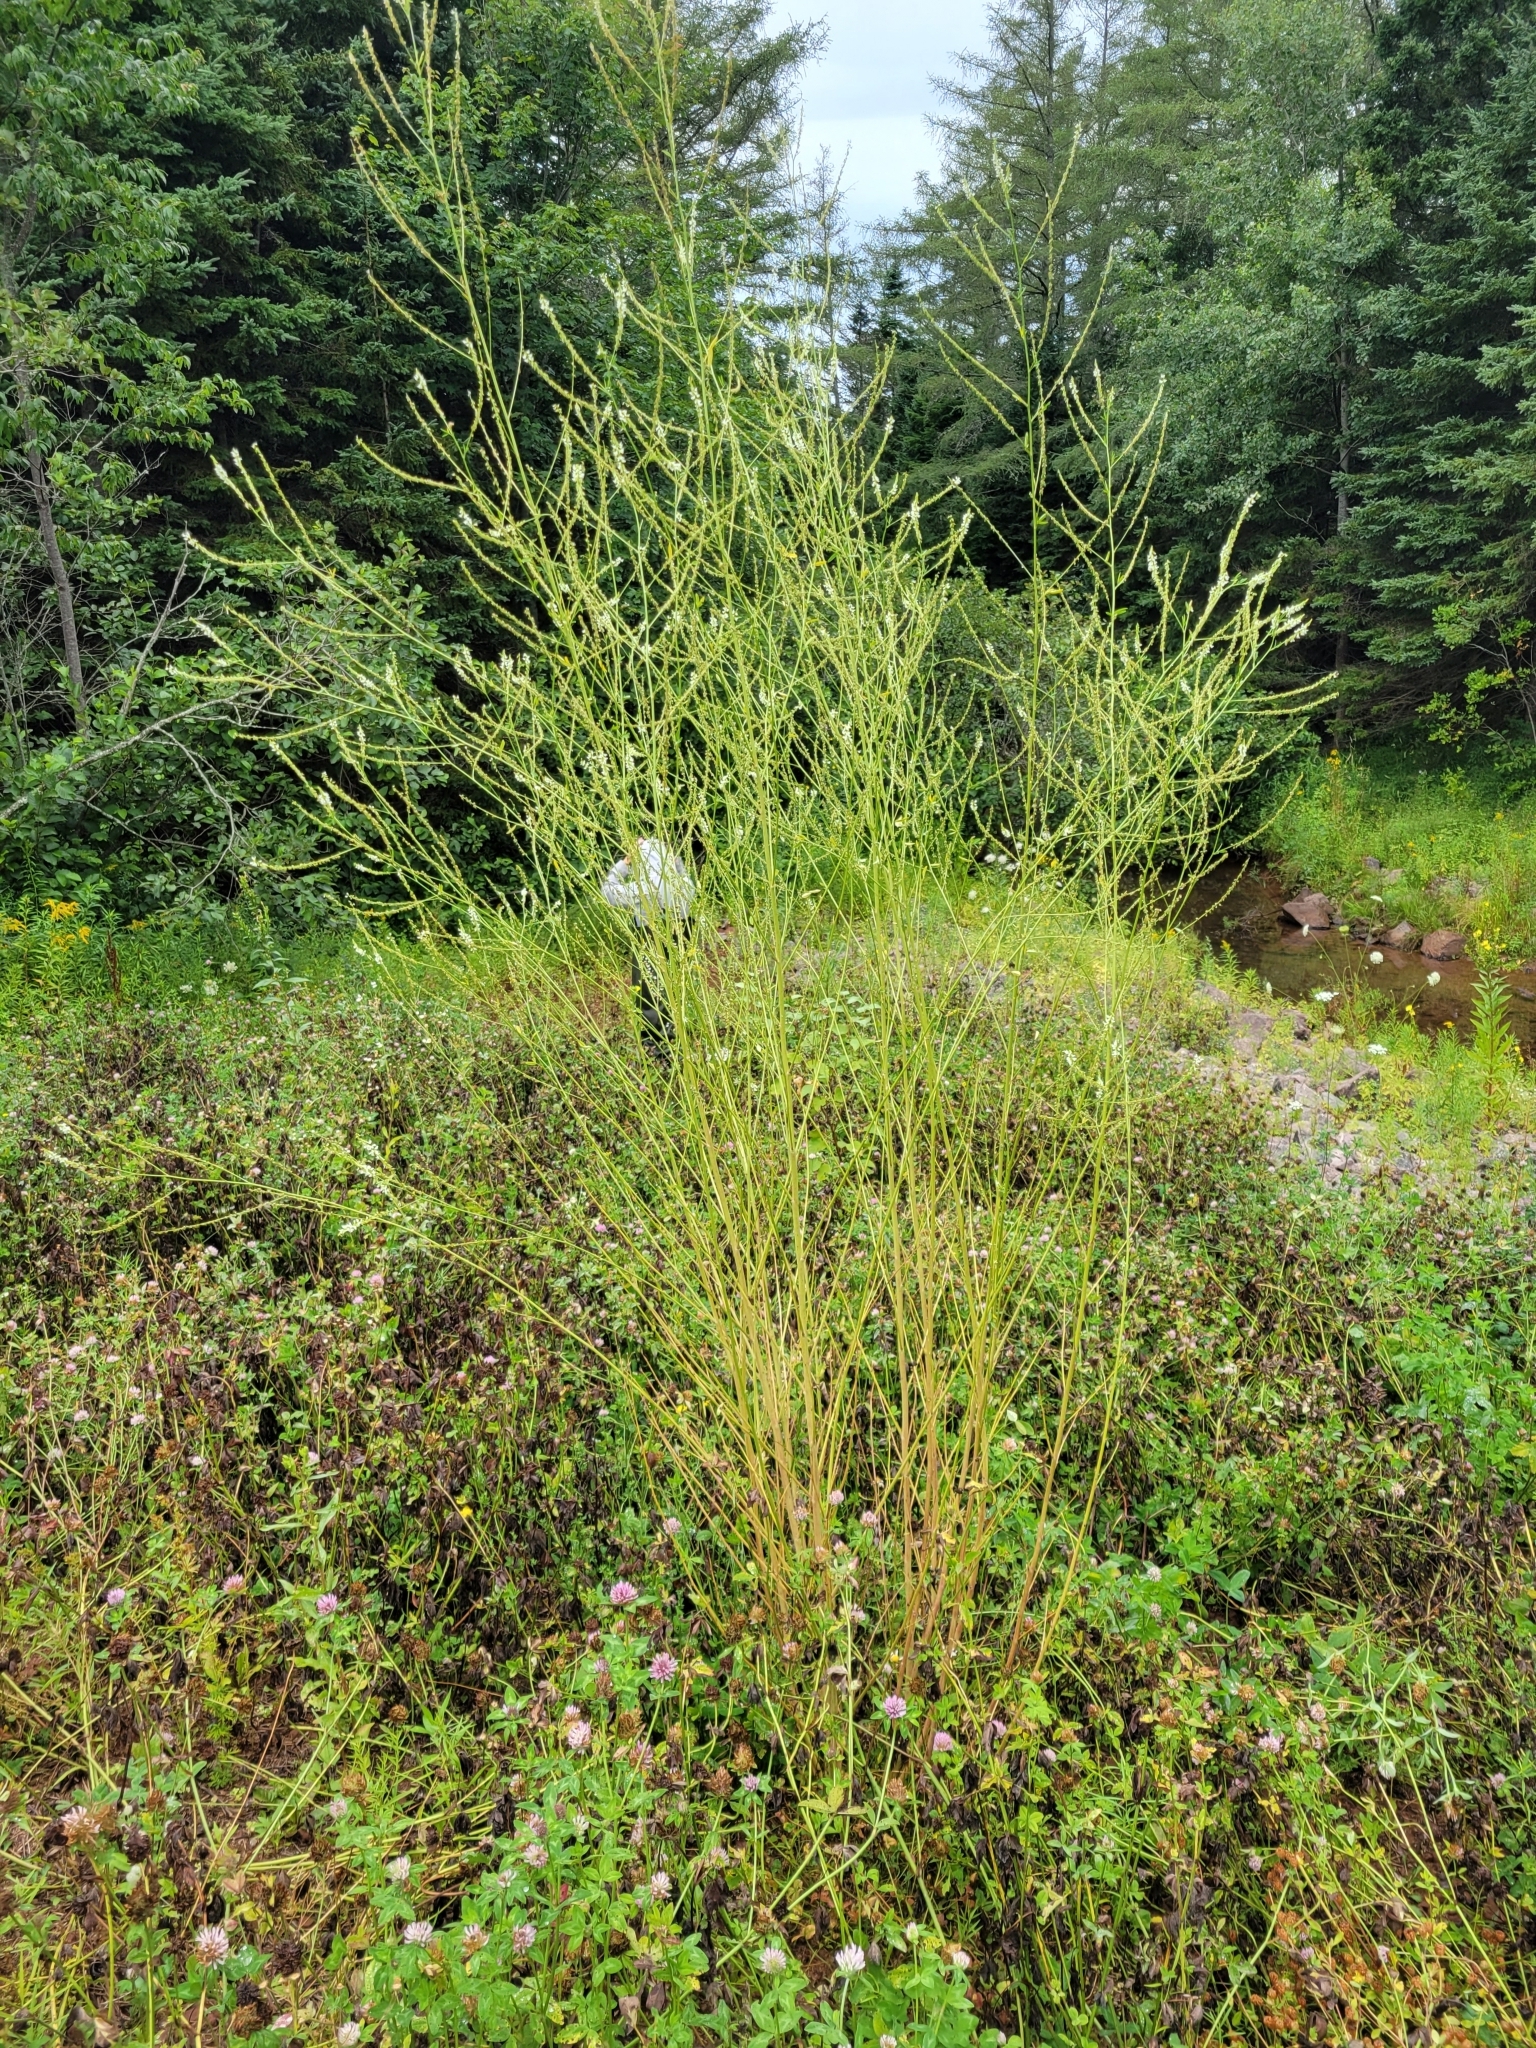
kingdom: Plantae
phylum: Tracheophyta
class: Magnoliopsida
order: Fabales
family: Fabaceae
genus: Melilotus
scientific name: Melilotus albus
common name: White melilot
